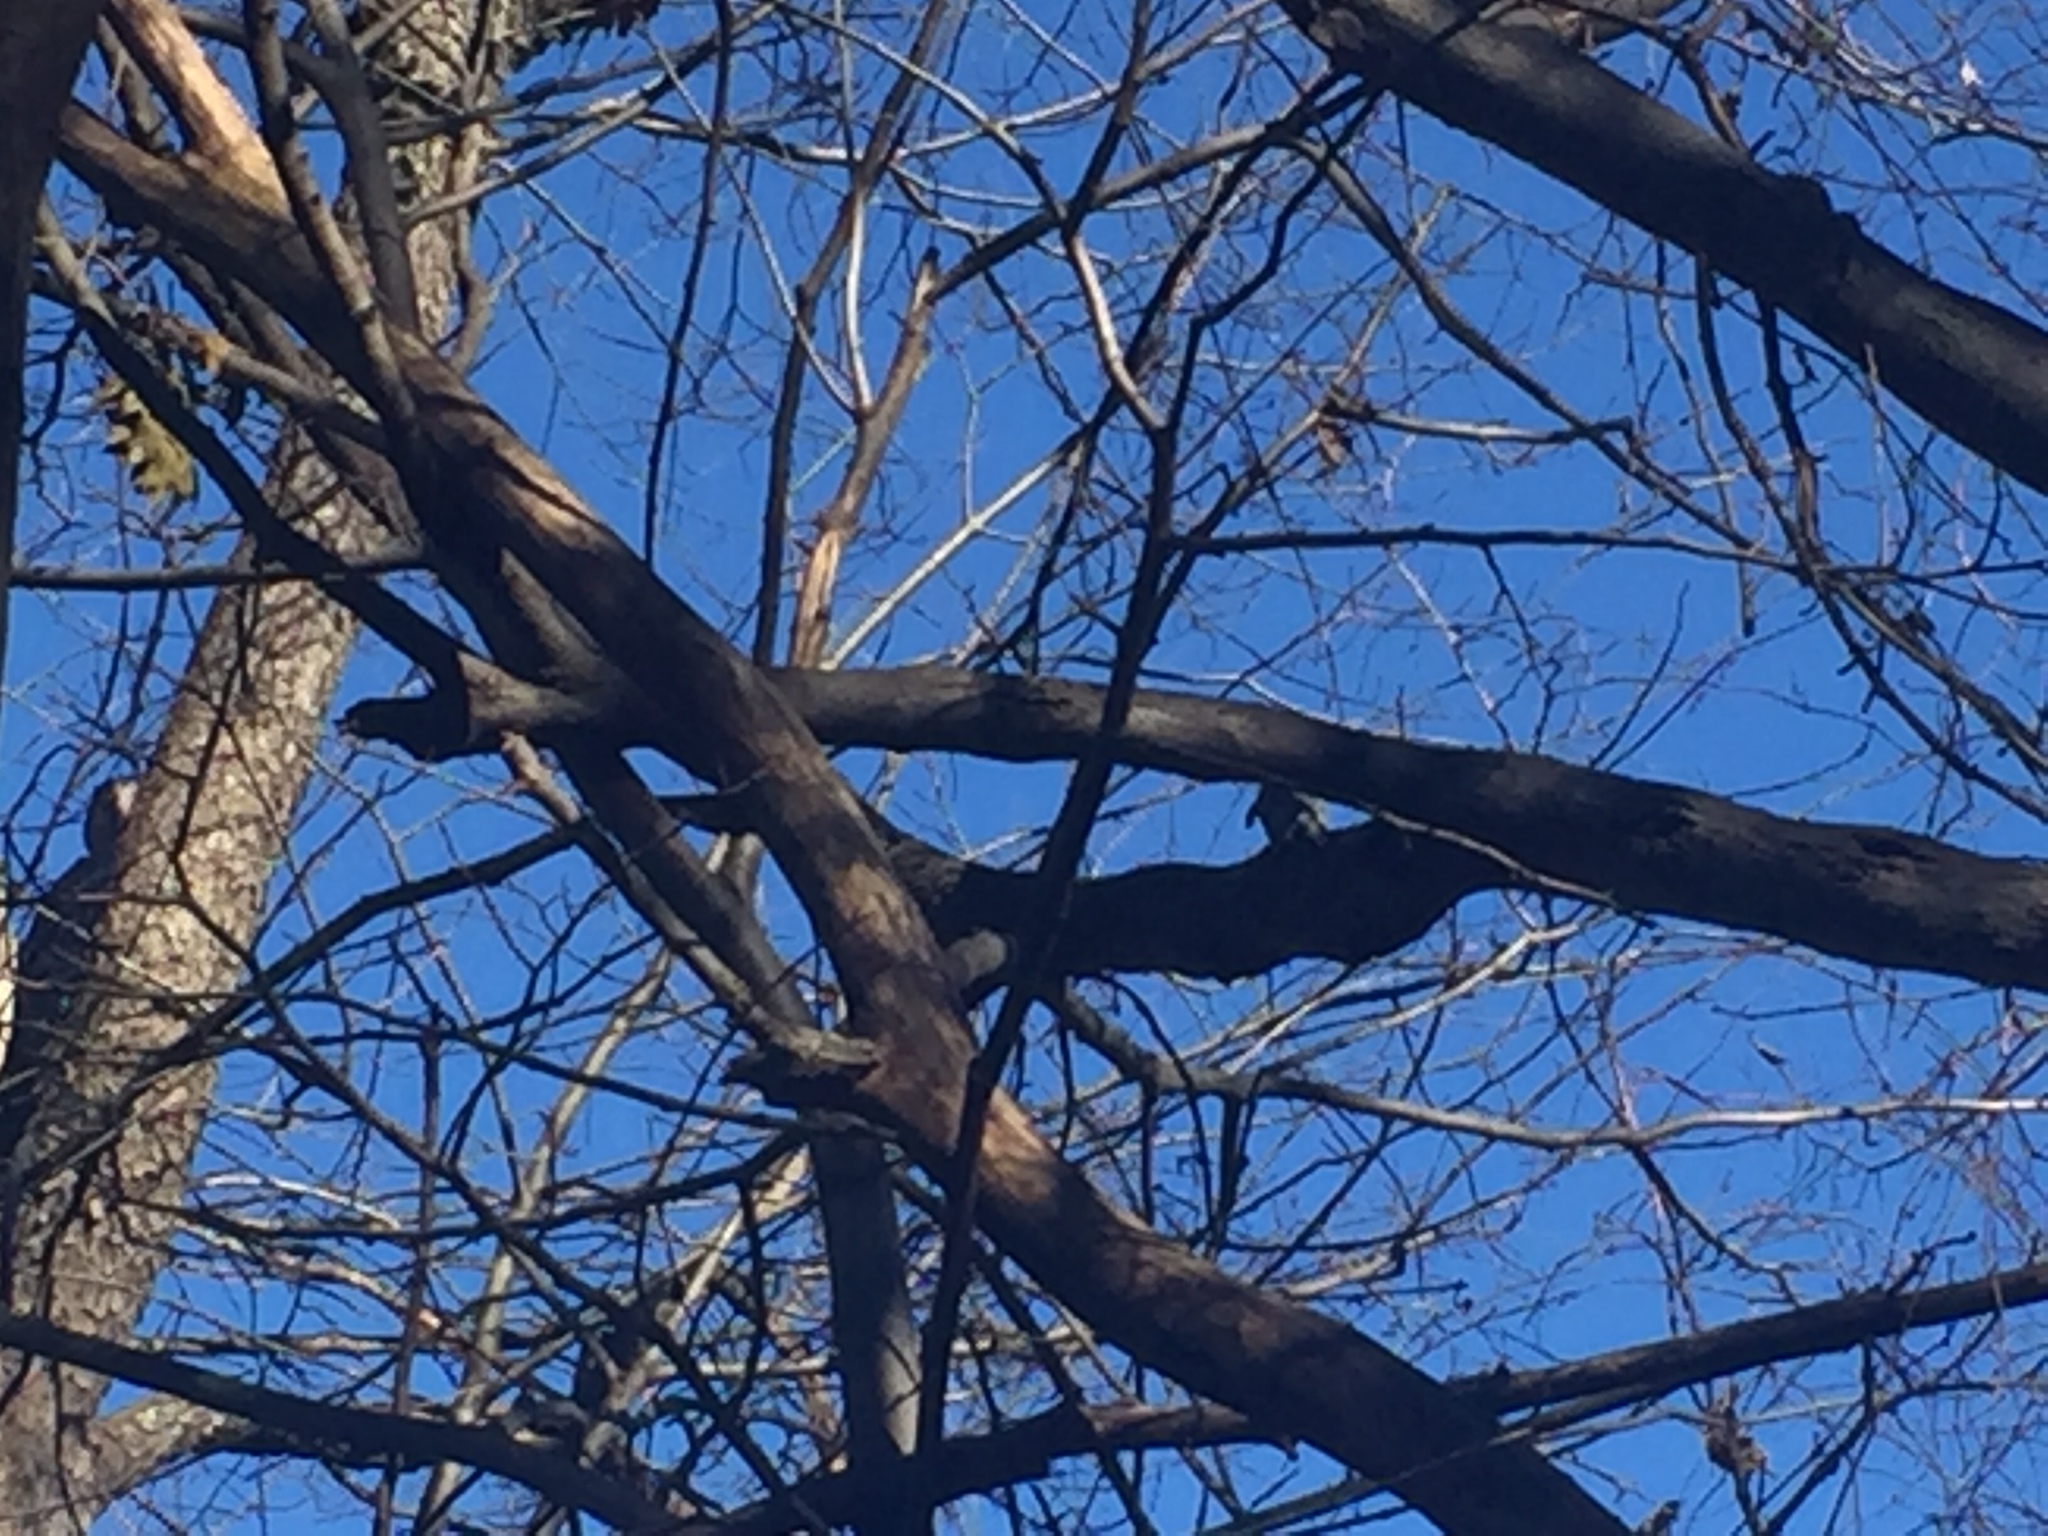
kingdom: Animalia
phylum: Chordata
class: Aves
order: Piciformes
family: Picidae
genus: Melanerpes
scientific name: Melanerpes carolinus
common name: Red-bellied woodpecker
